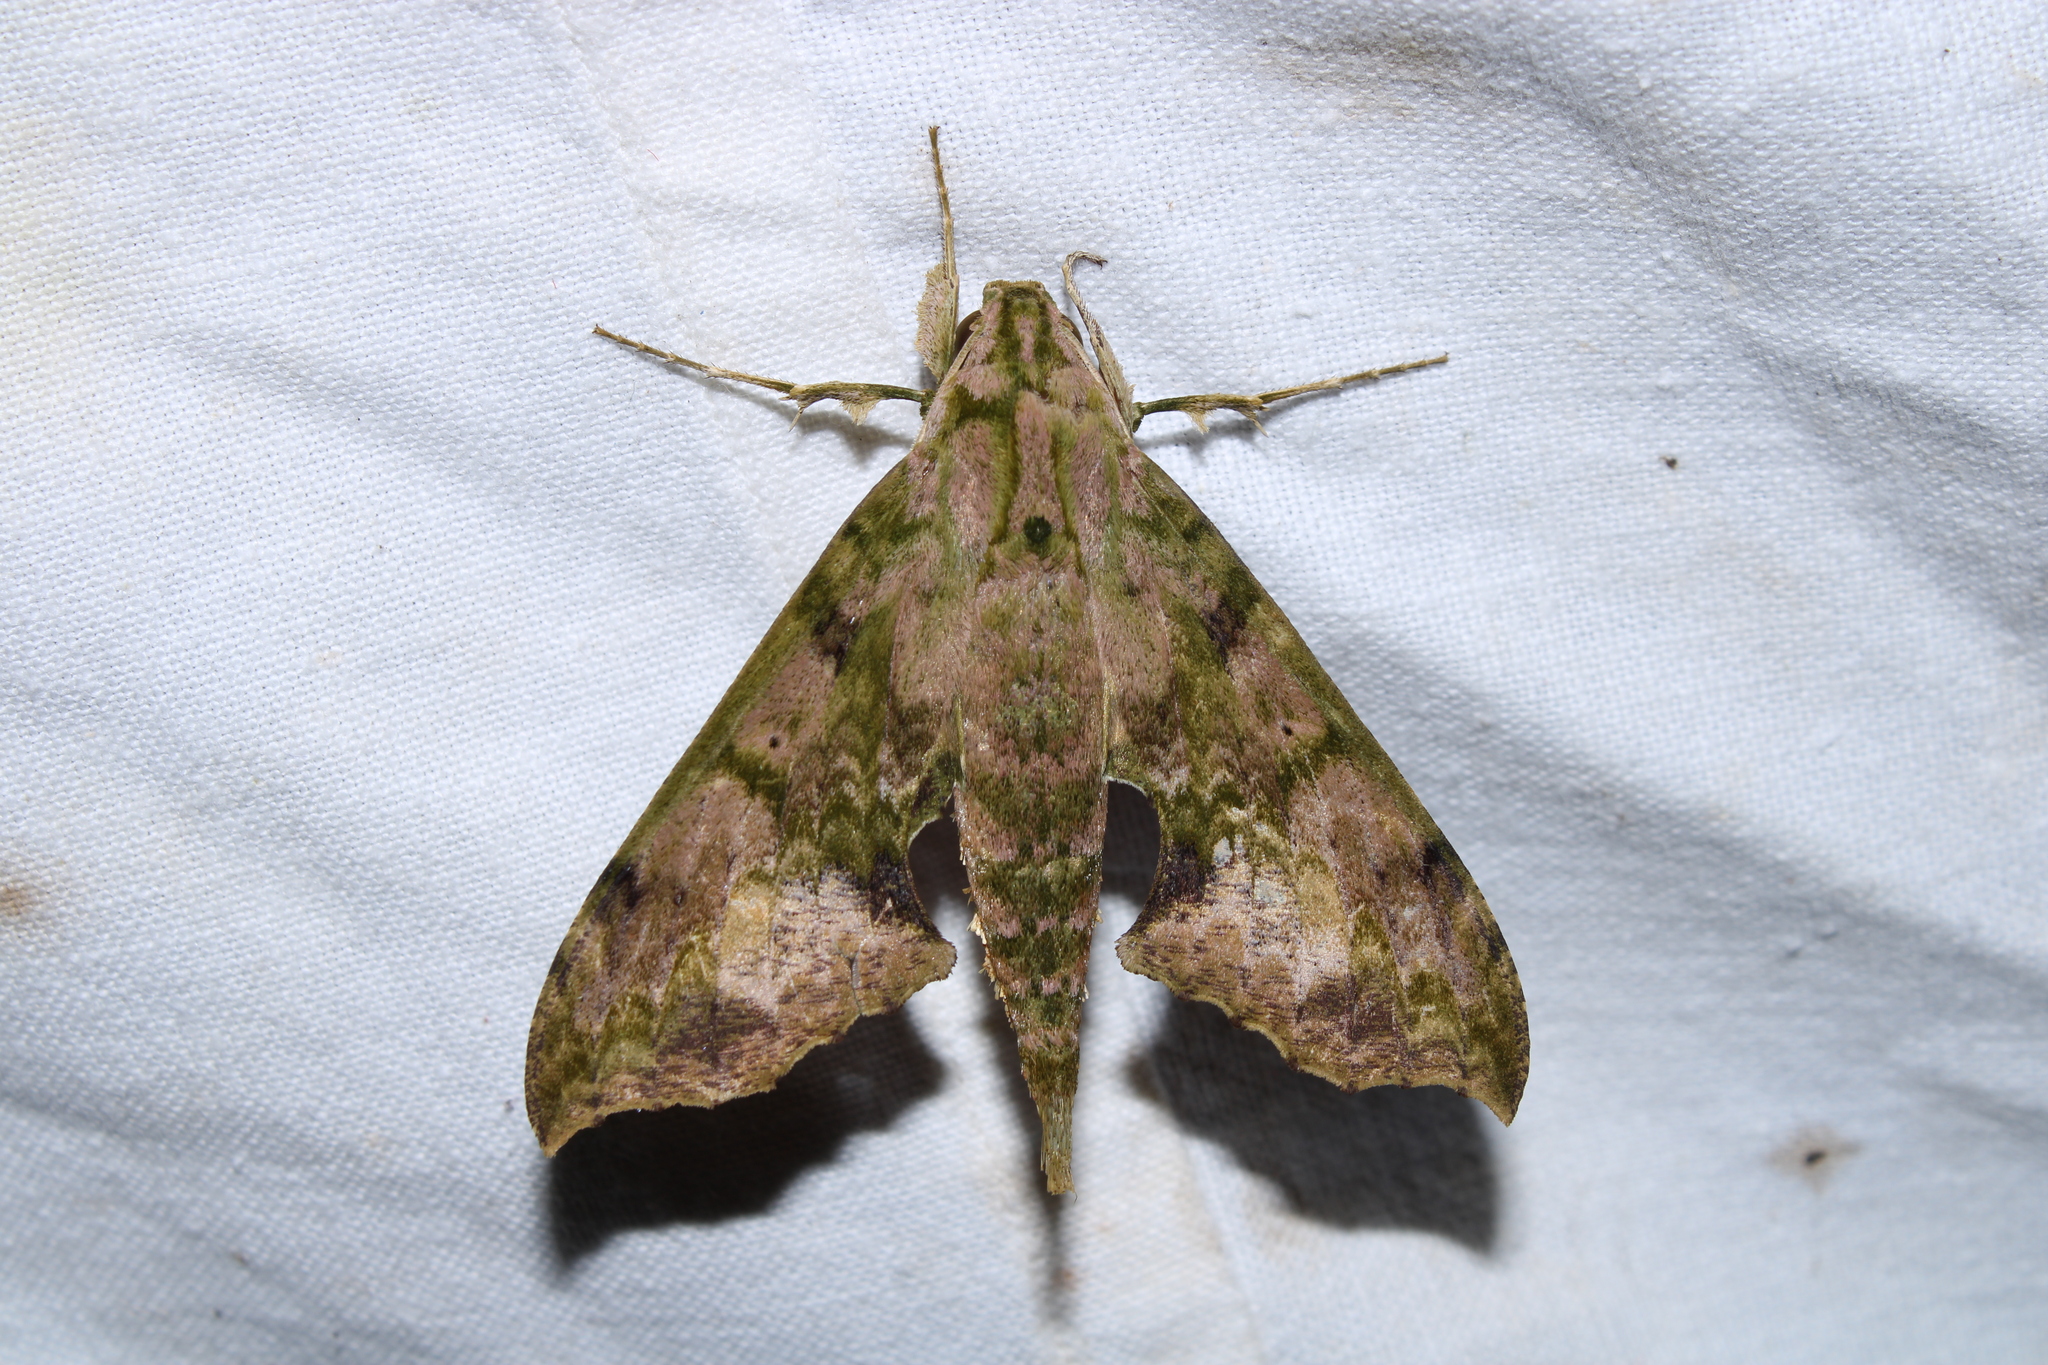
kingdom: Animalia
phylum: Arthropoda
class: Insecta
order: Lepidoptera
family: Sphingidae
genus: Xylophanes
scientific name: Xylophanes zurcheri
